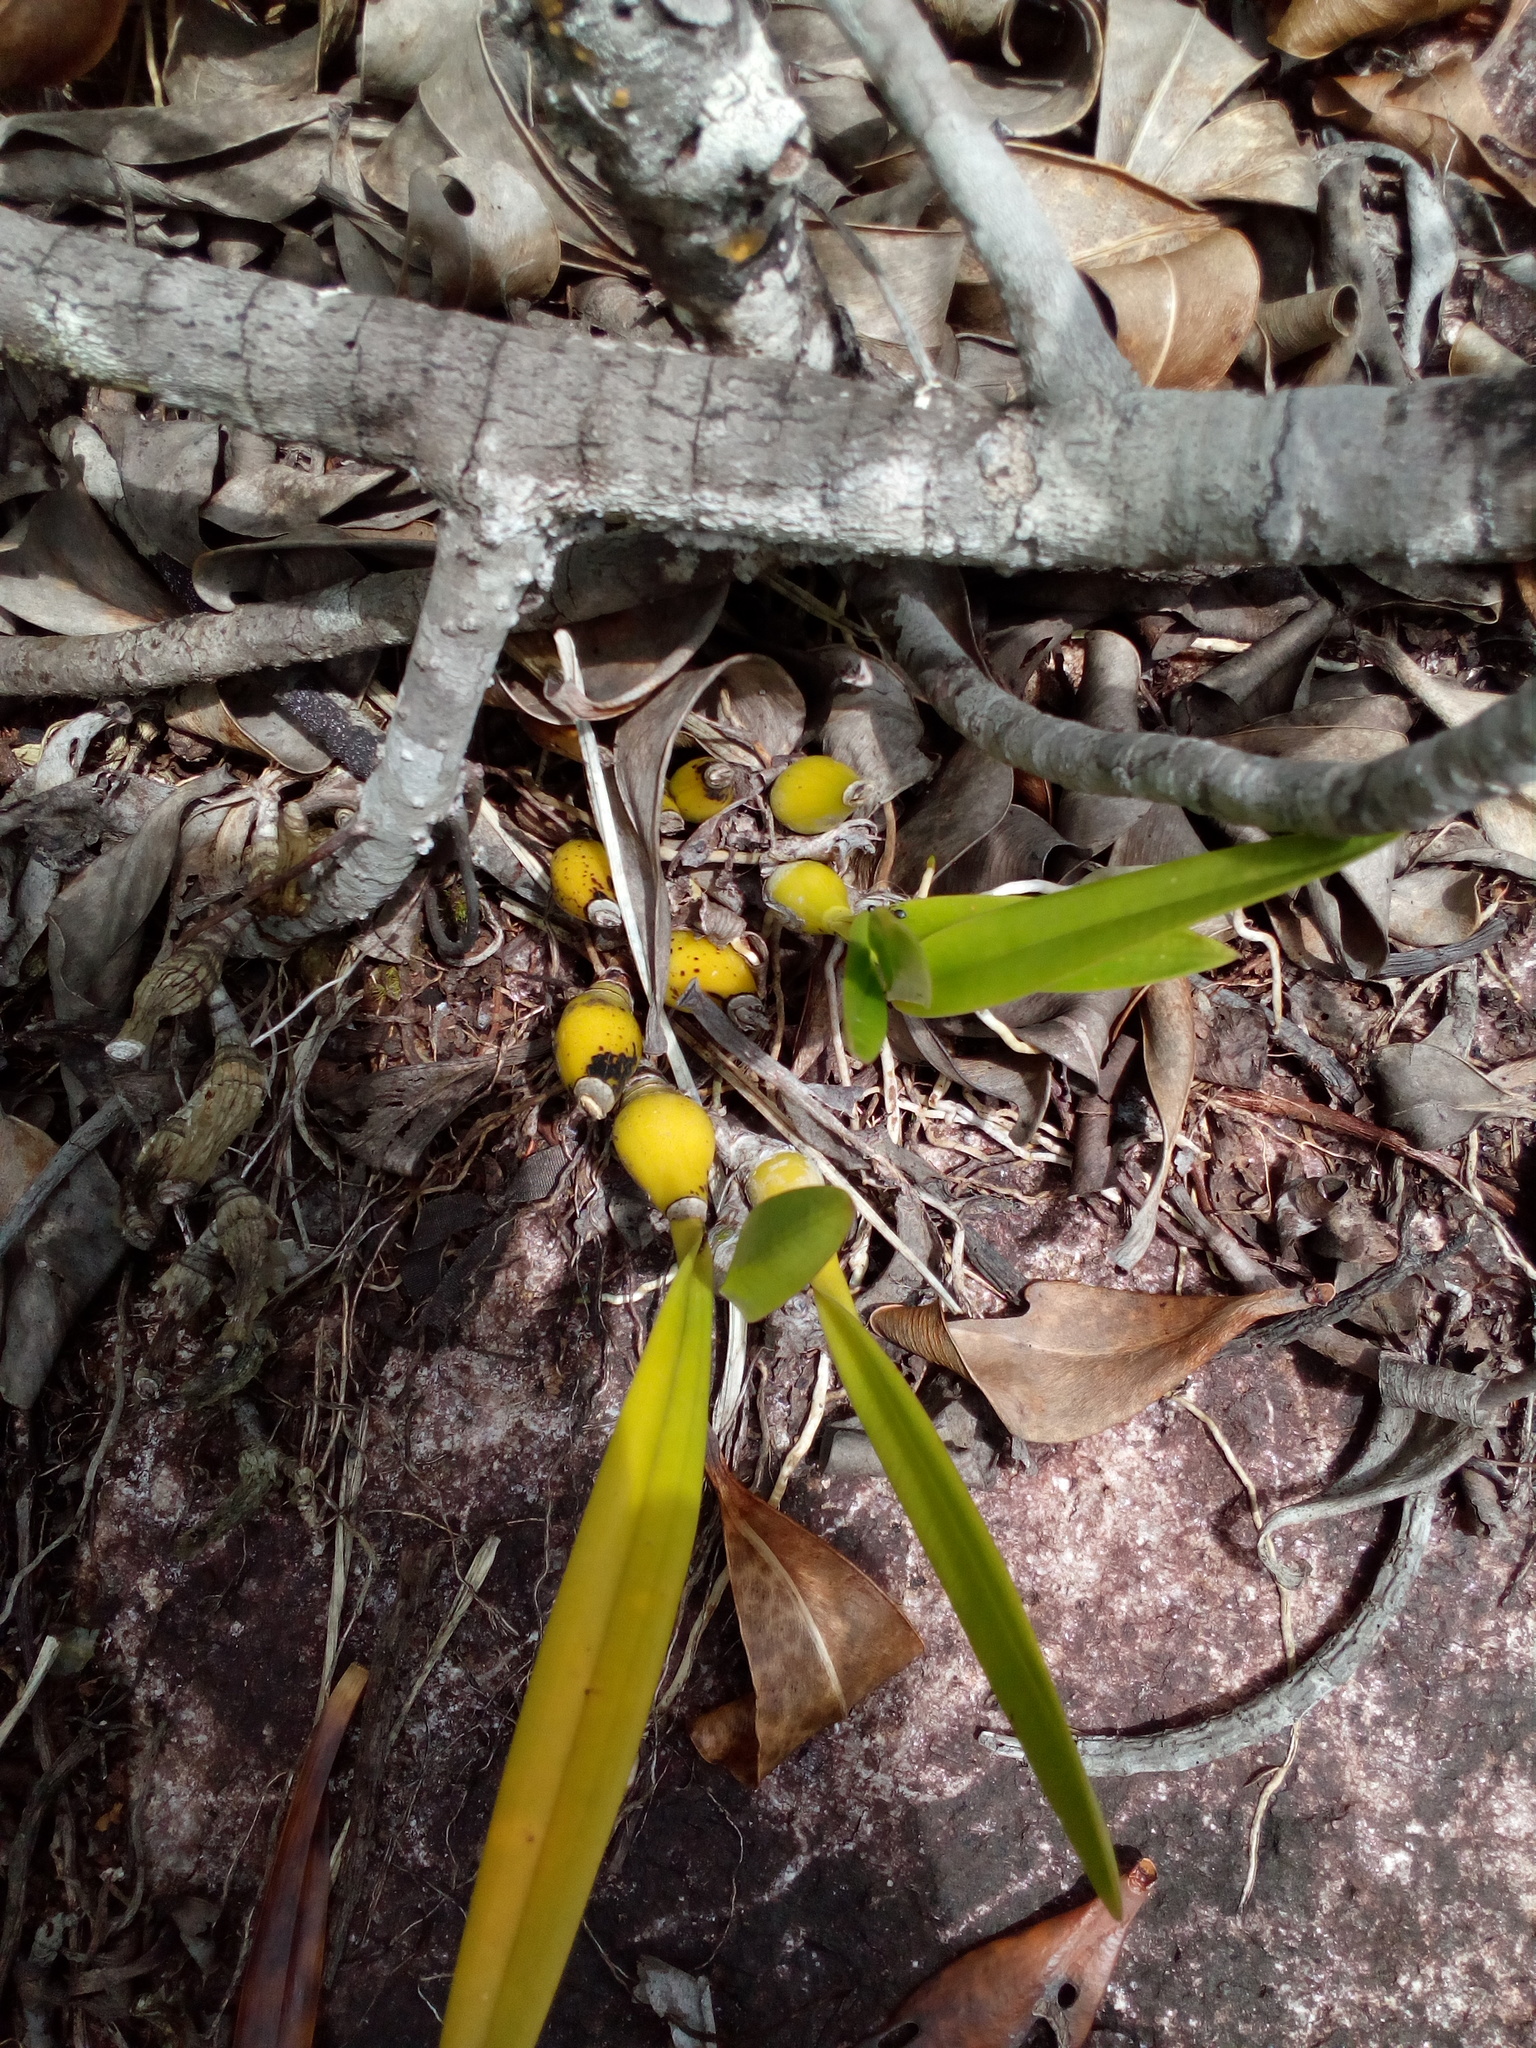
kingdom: Plantae
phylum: Tracheophyta
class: Liliopsida
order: Asparagales
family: Orchidaceae
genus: Encyclia
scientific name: Encyclia granitica
